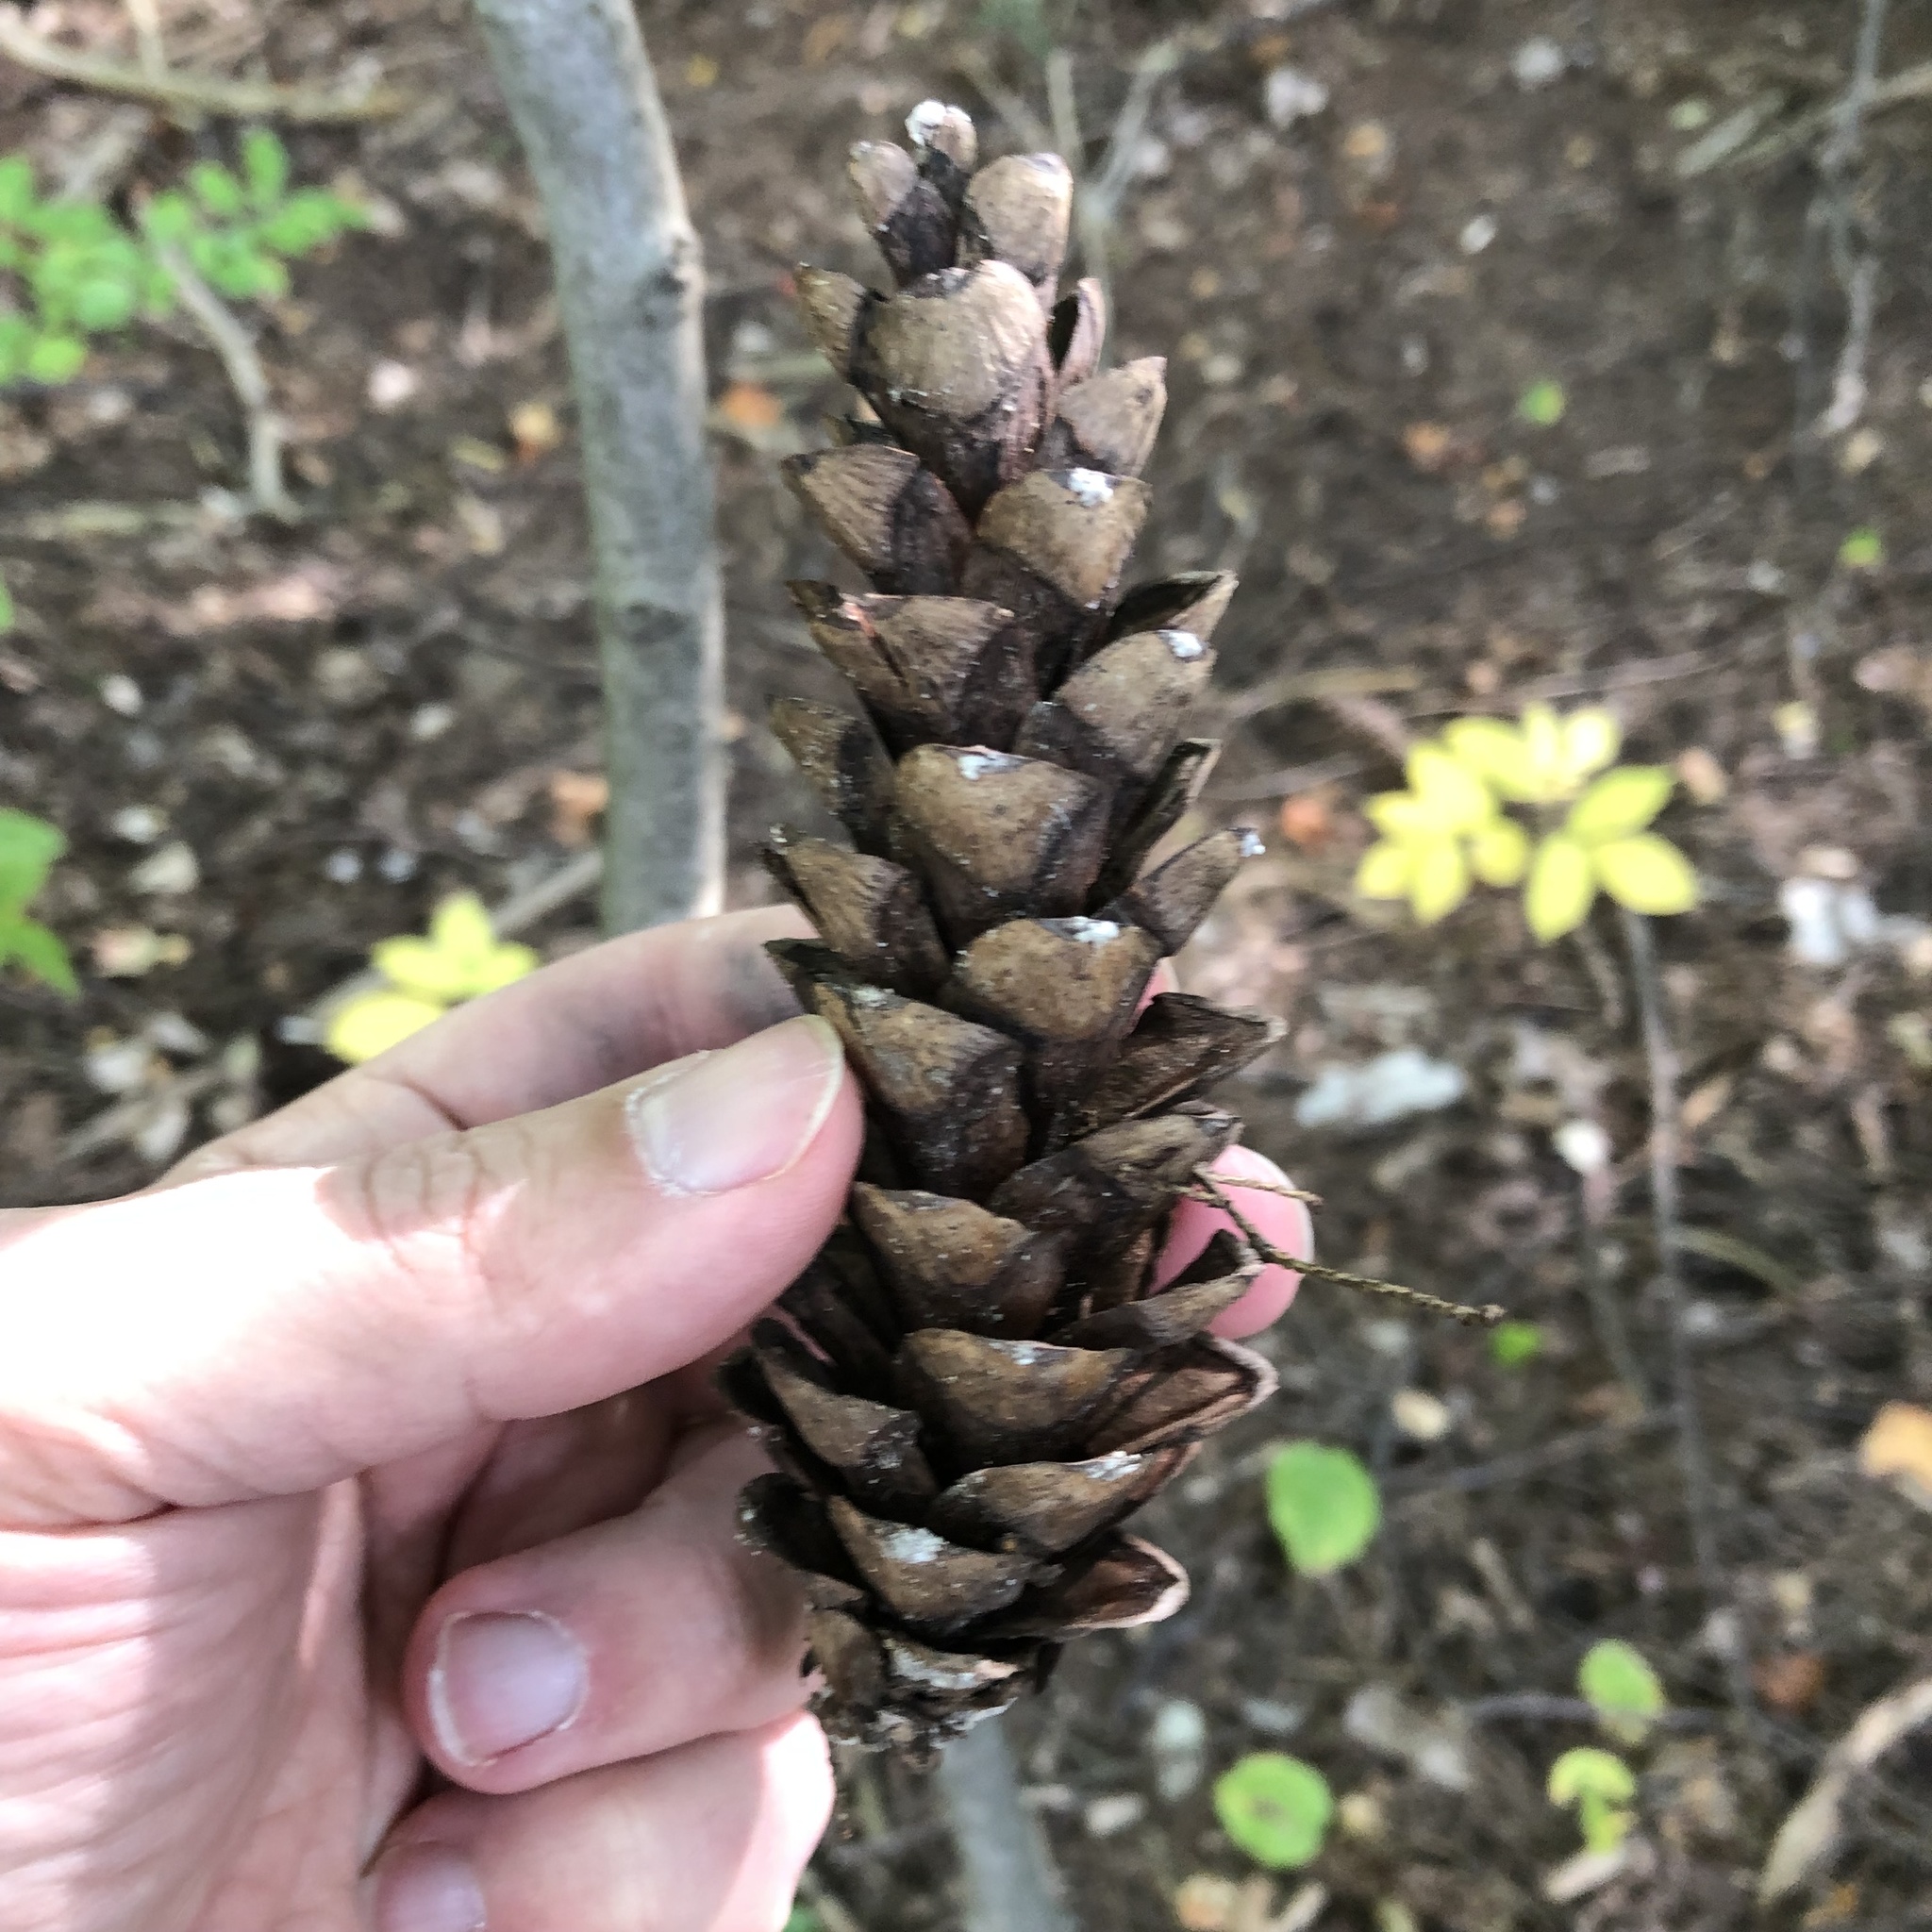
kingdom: Plantae
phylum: Tracheophyta
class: Pinopsida
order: Pinales
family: Pinaceae
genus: Pinus
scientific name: Pinus strobus
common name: Weymouth pine
